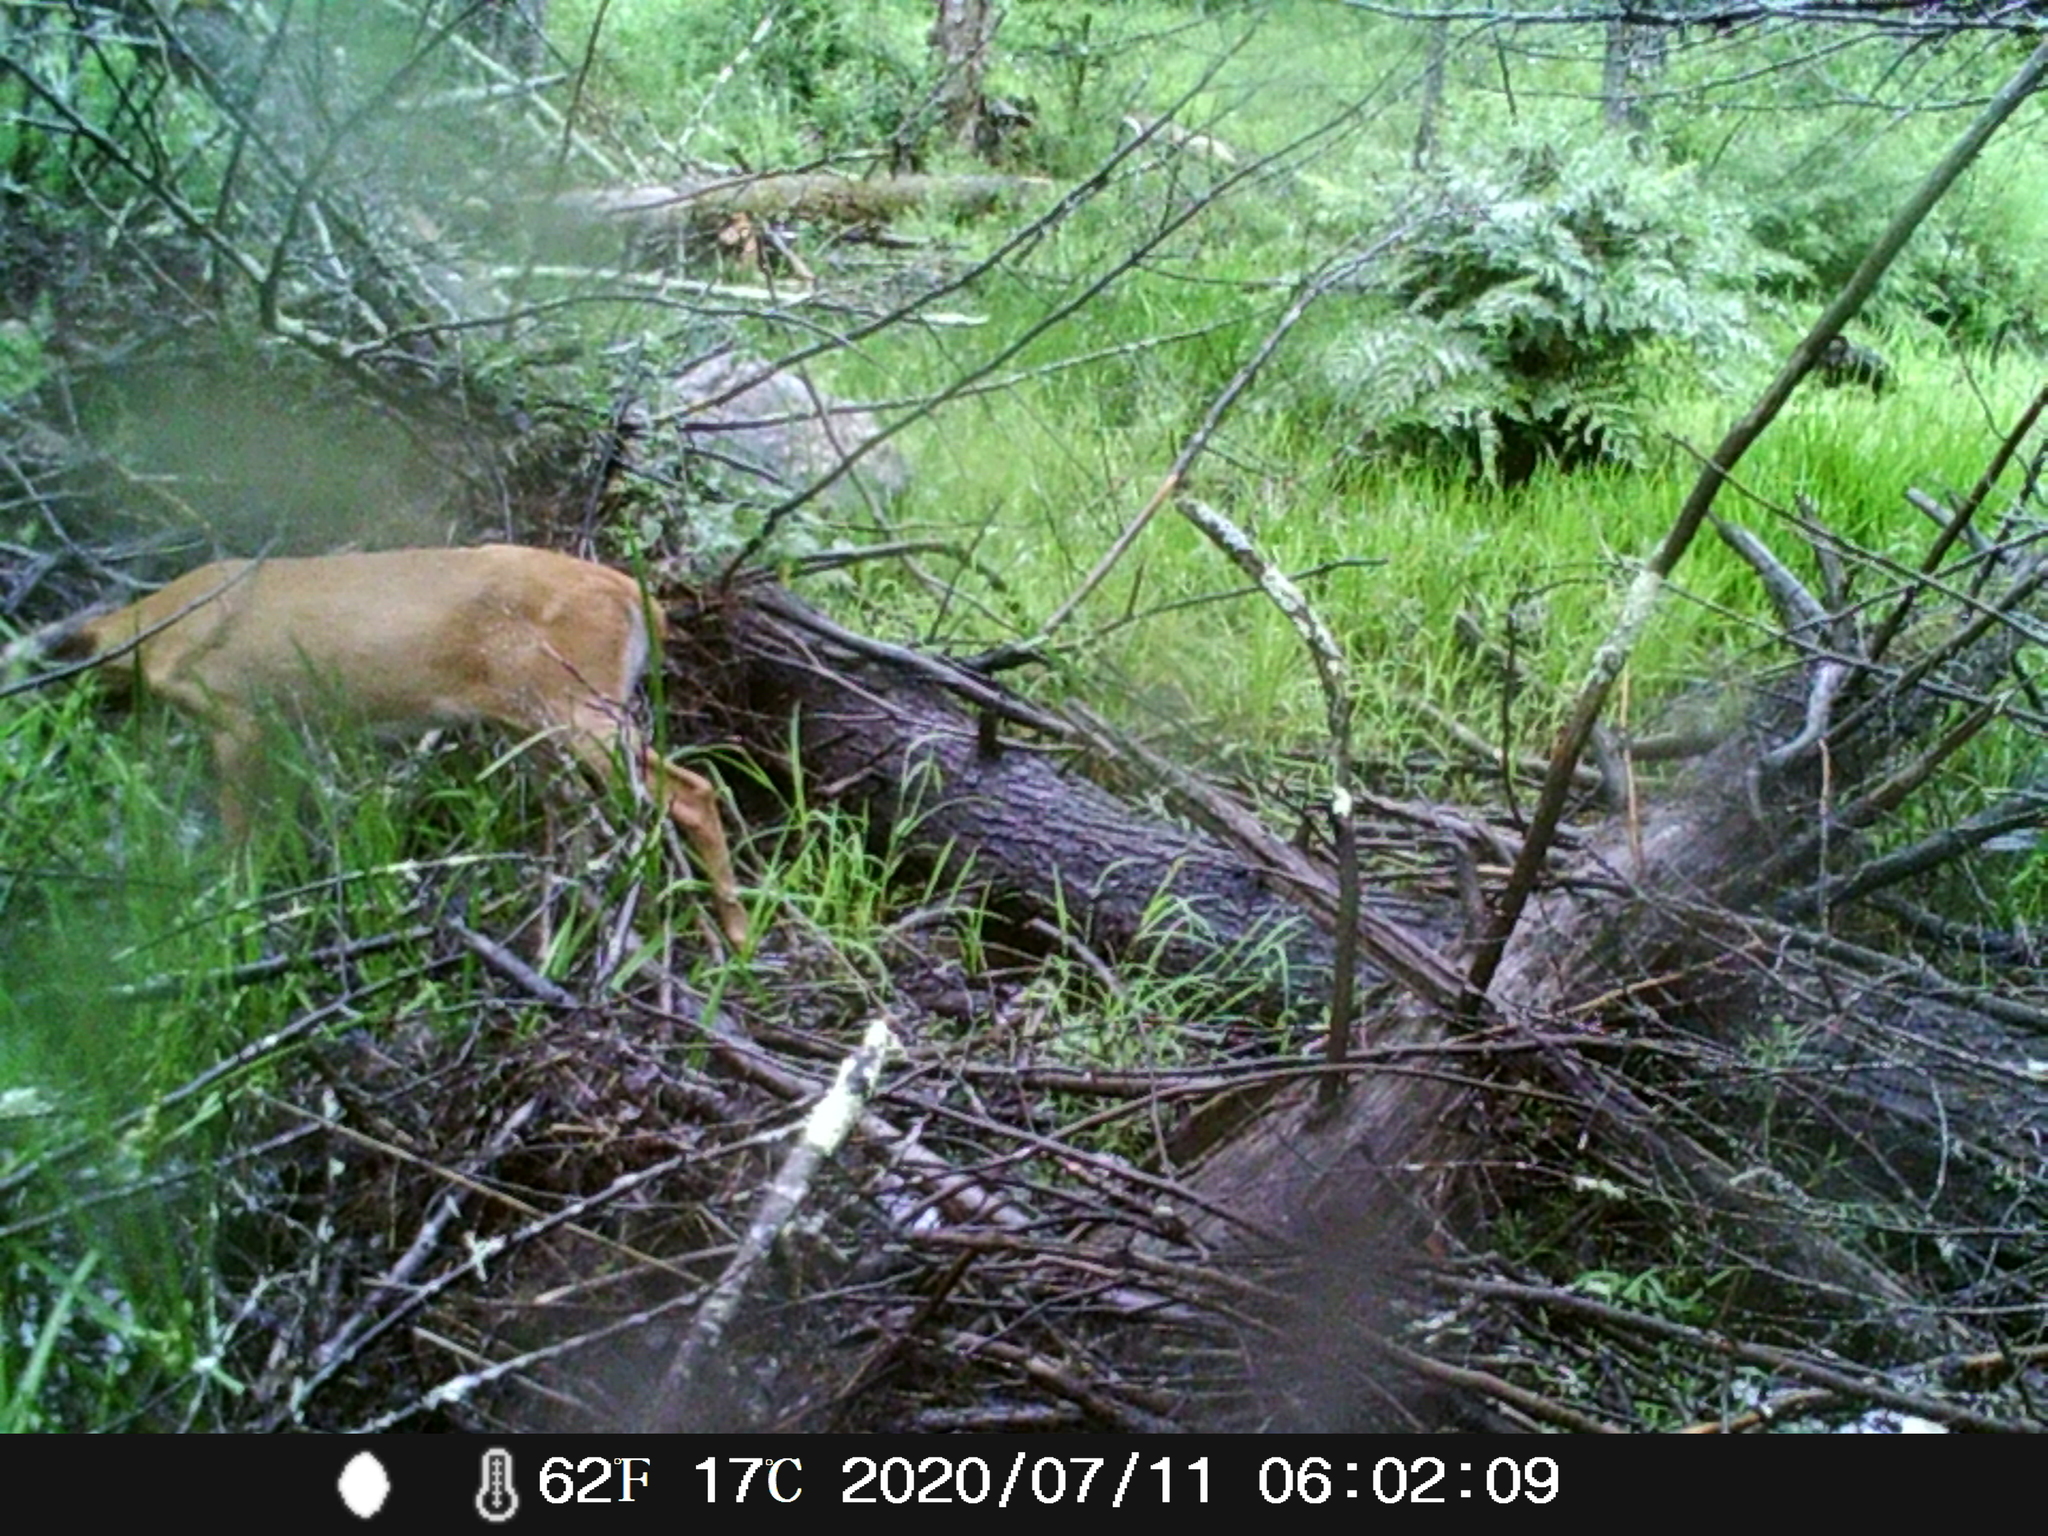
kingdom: Animalia
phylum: Chordata
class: Mammalia
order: Artiodactyla
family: Cervidae
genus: Odocoileus
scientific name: Odocoileus virginianus
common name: White-tailed deer
